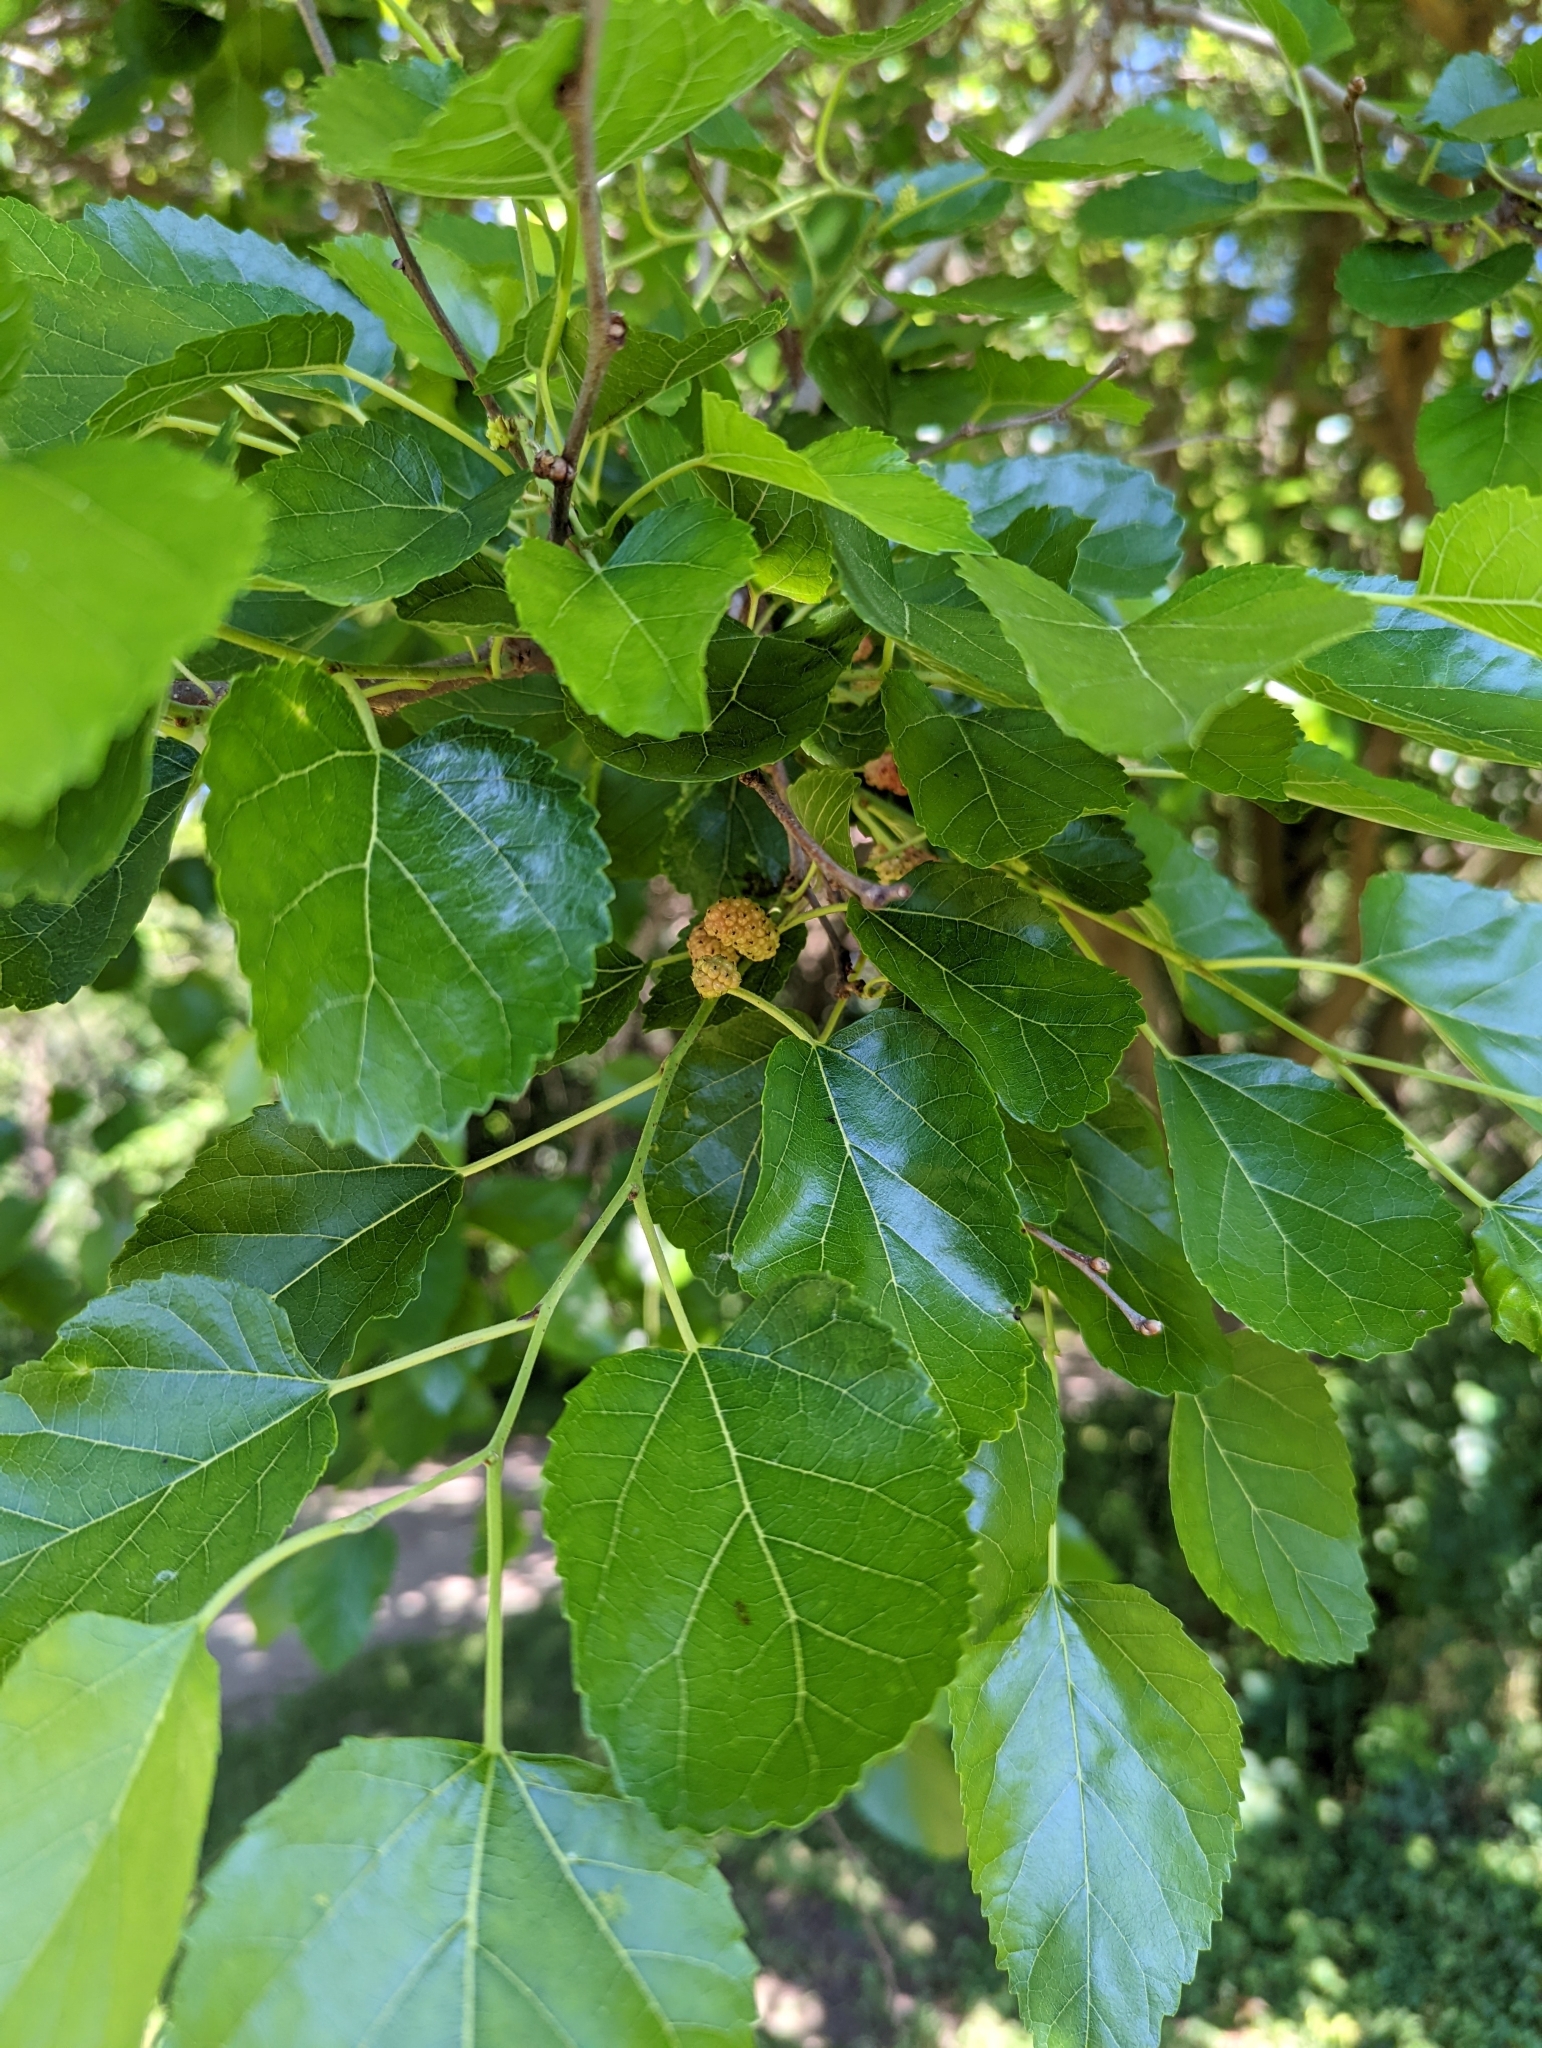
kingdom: Plantae
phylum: Tracheophyta
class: Magnoliopsida
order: Rosales
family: Moraceae
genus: Morus
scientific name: Morus alba
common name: White mulberry
